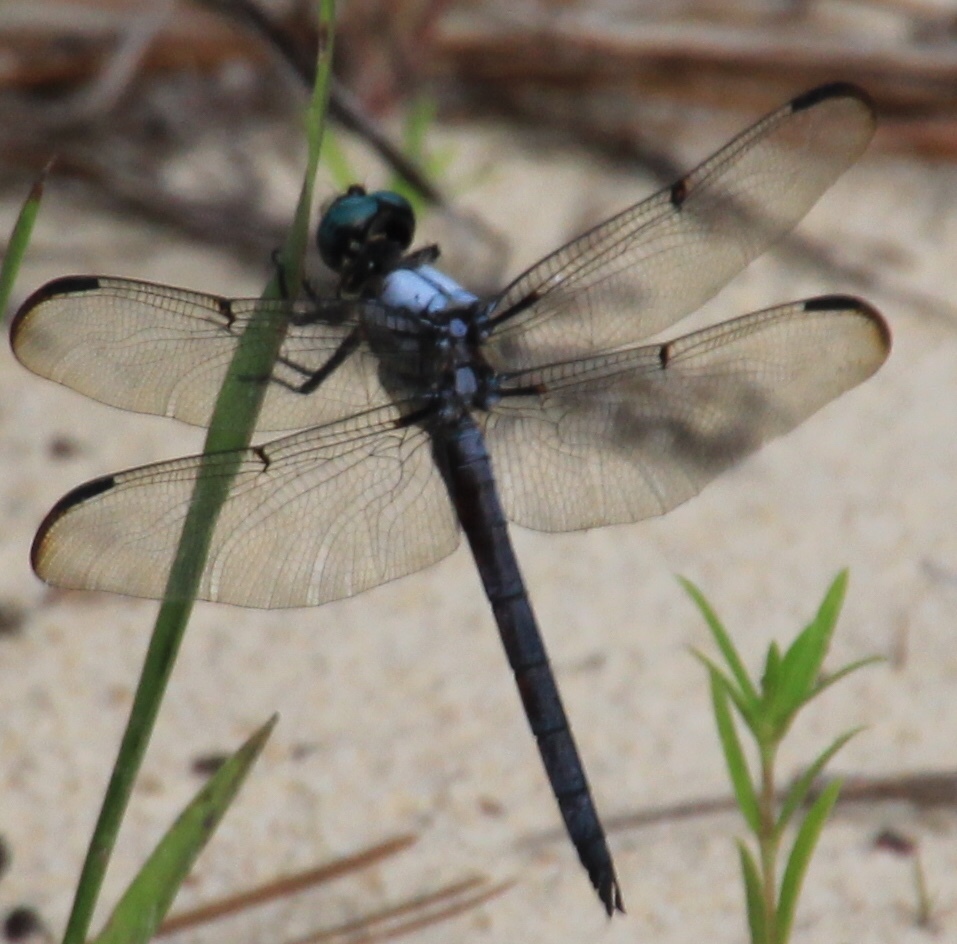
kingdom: Animalia
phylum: Arthropoda
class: Insecta
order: Odonata
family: Libellulidae
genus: Libellula
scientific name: Libellula vibrans
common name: Great blue skimmer
